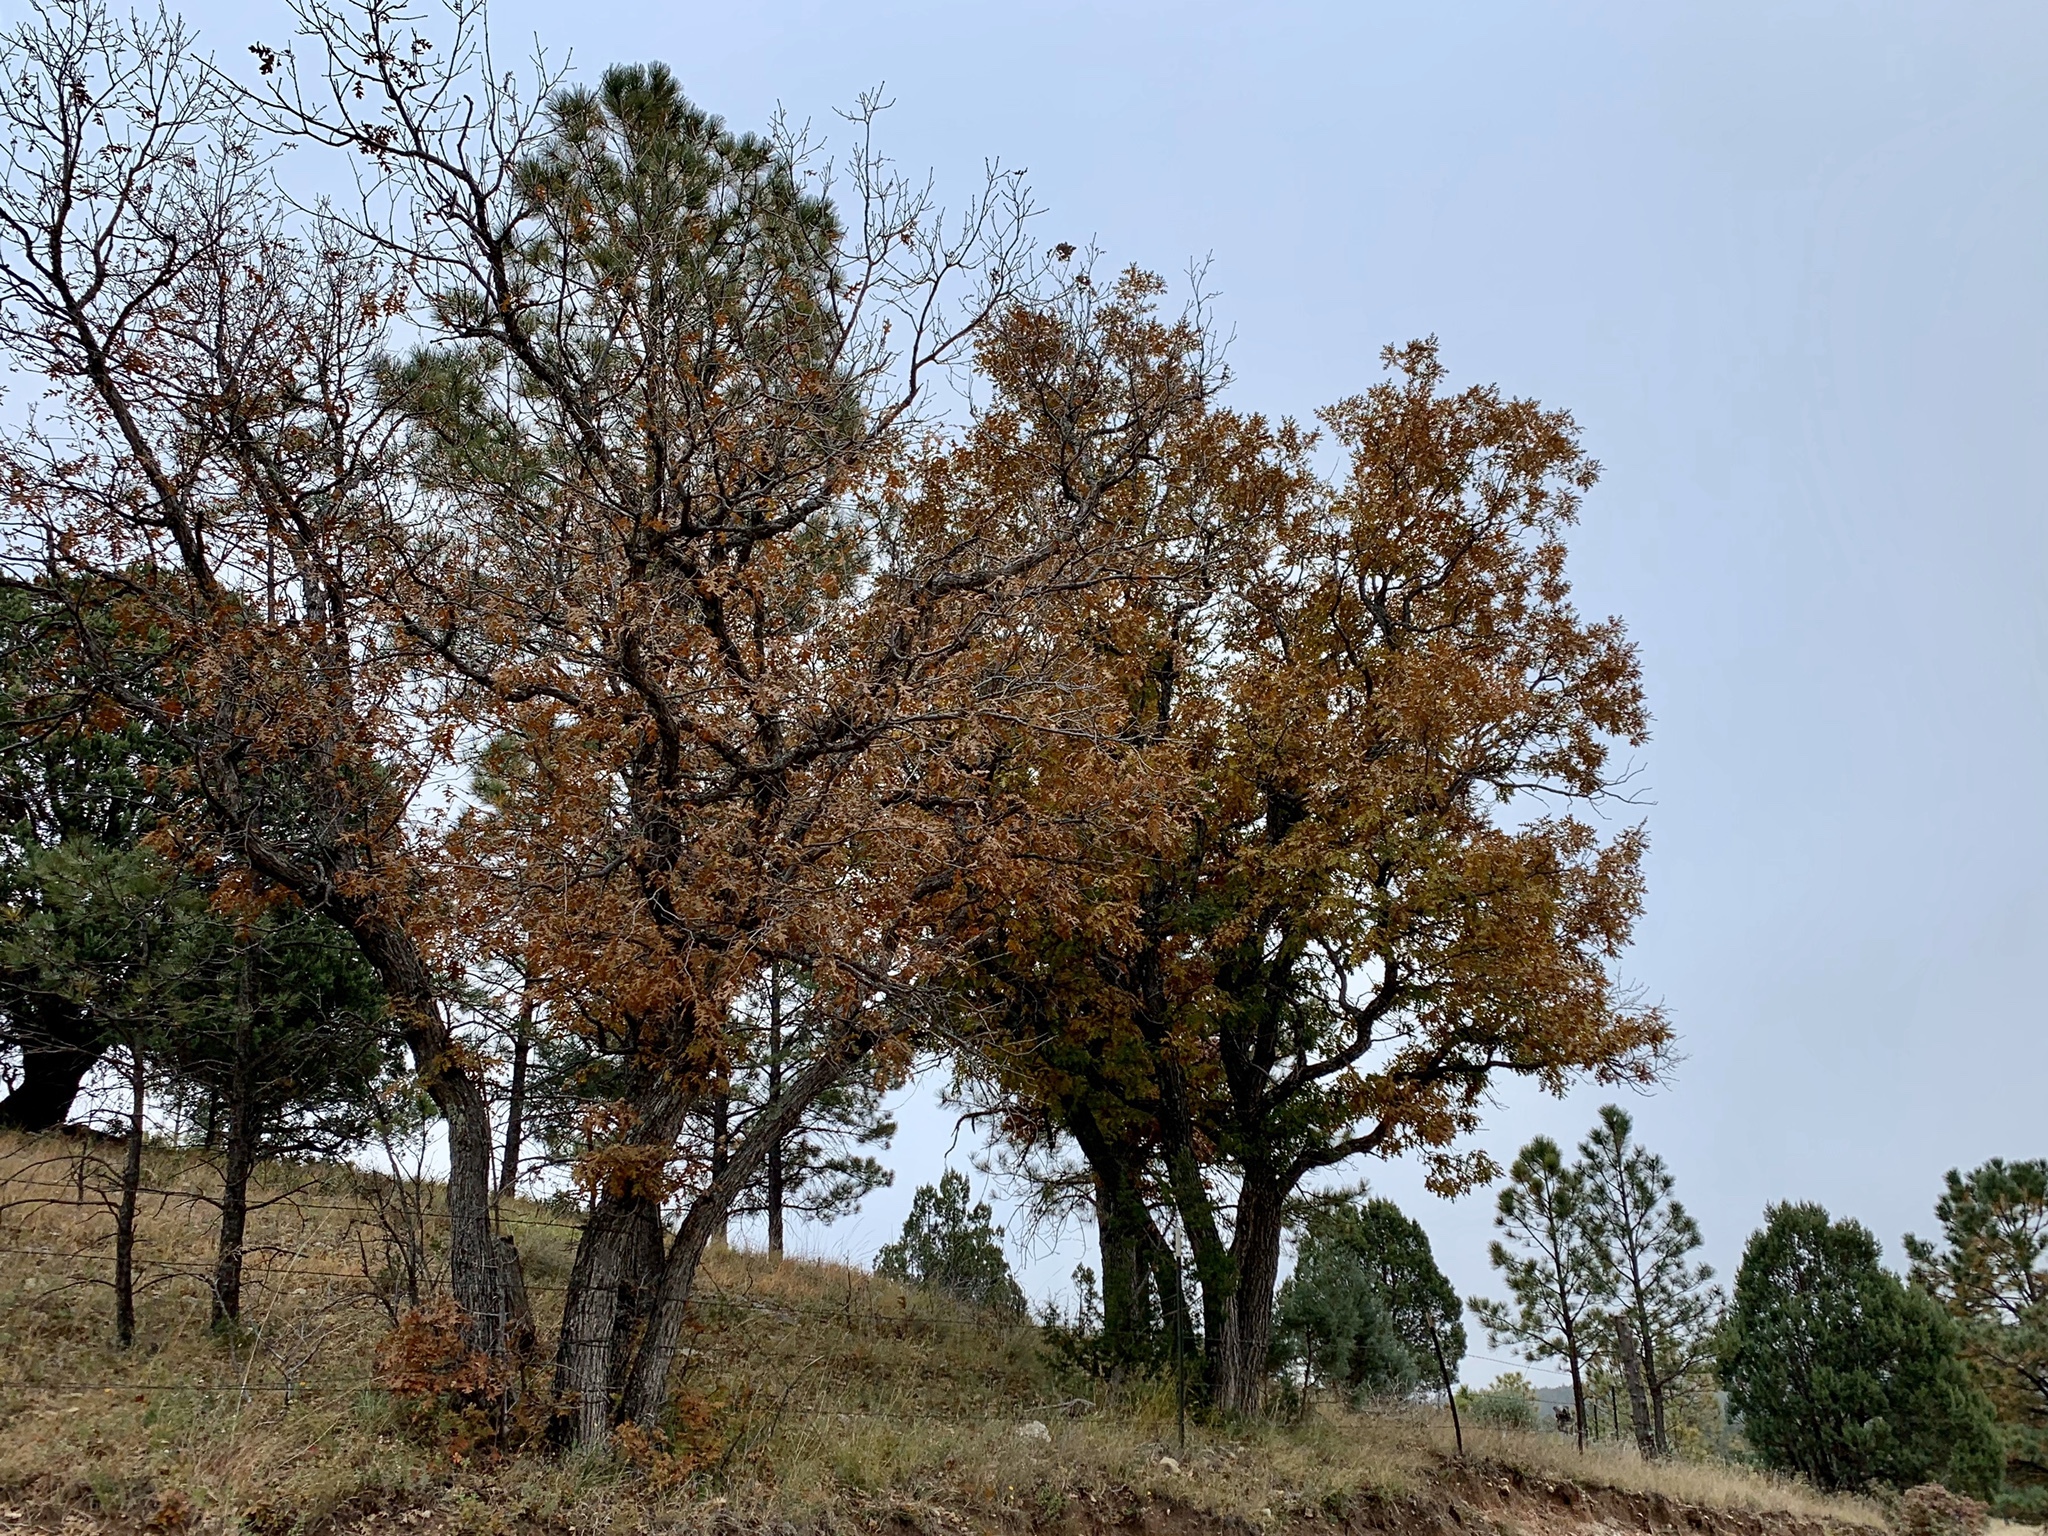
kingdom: Plantae
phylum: Tracheophyta
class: Magnoliopsida
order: Fagales
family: Fagaceae
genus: Quercus
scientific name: Quercus gambelii
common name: Gambel oak
